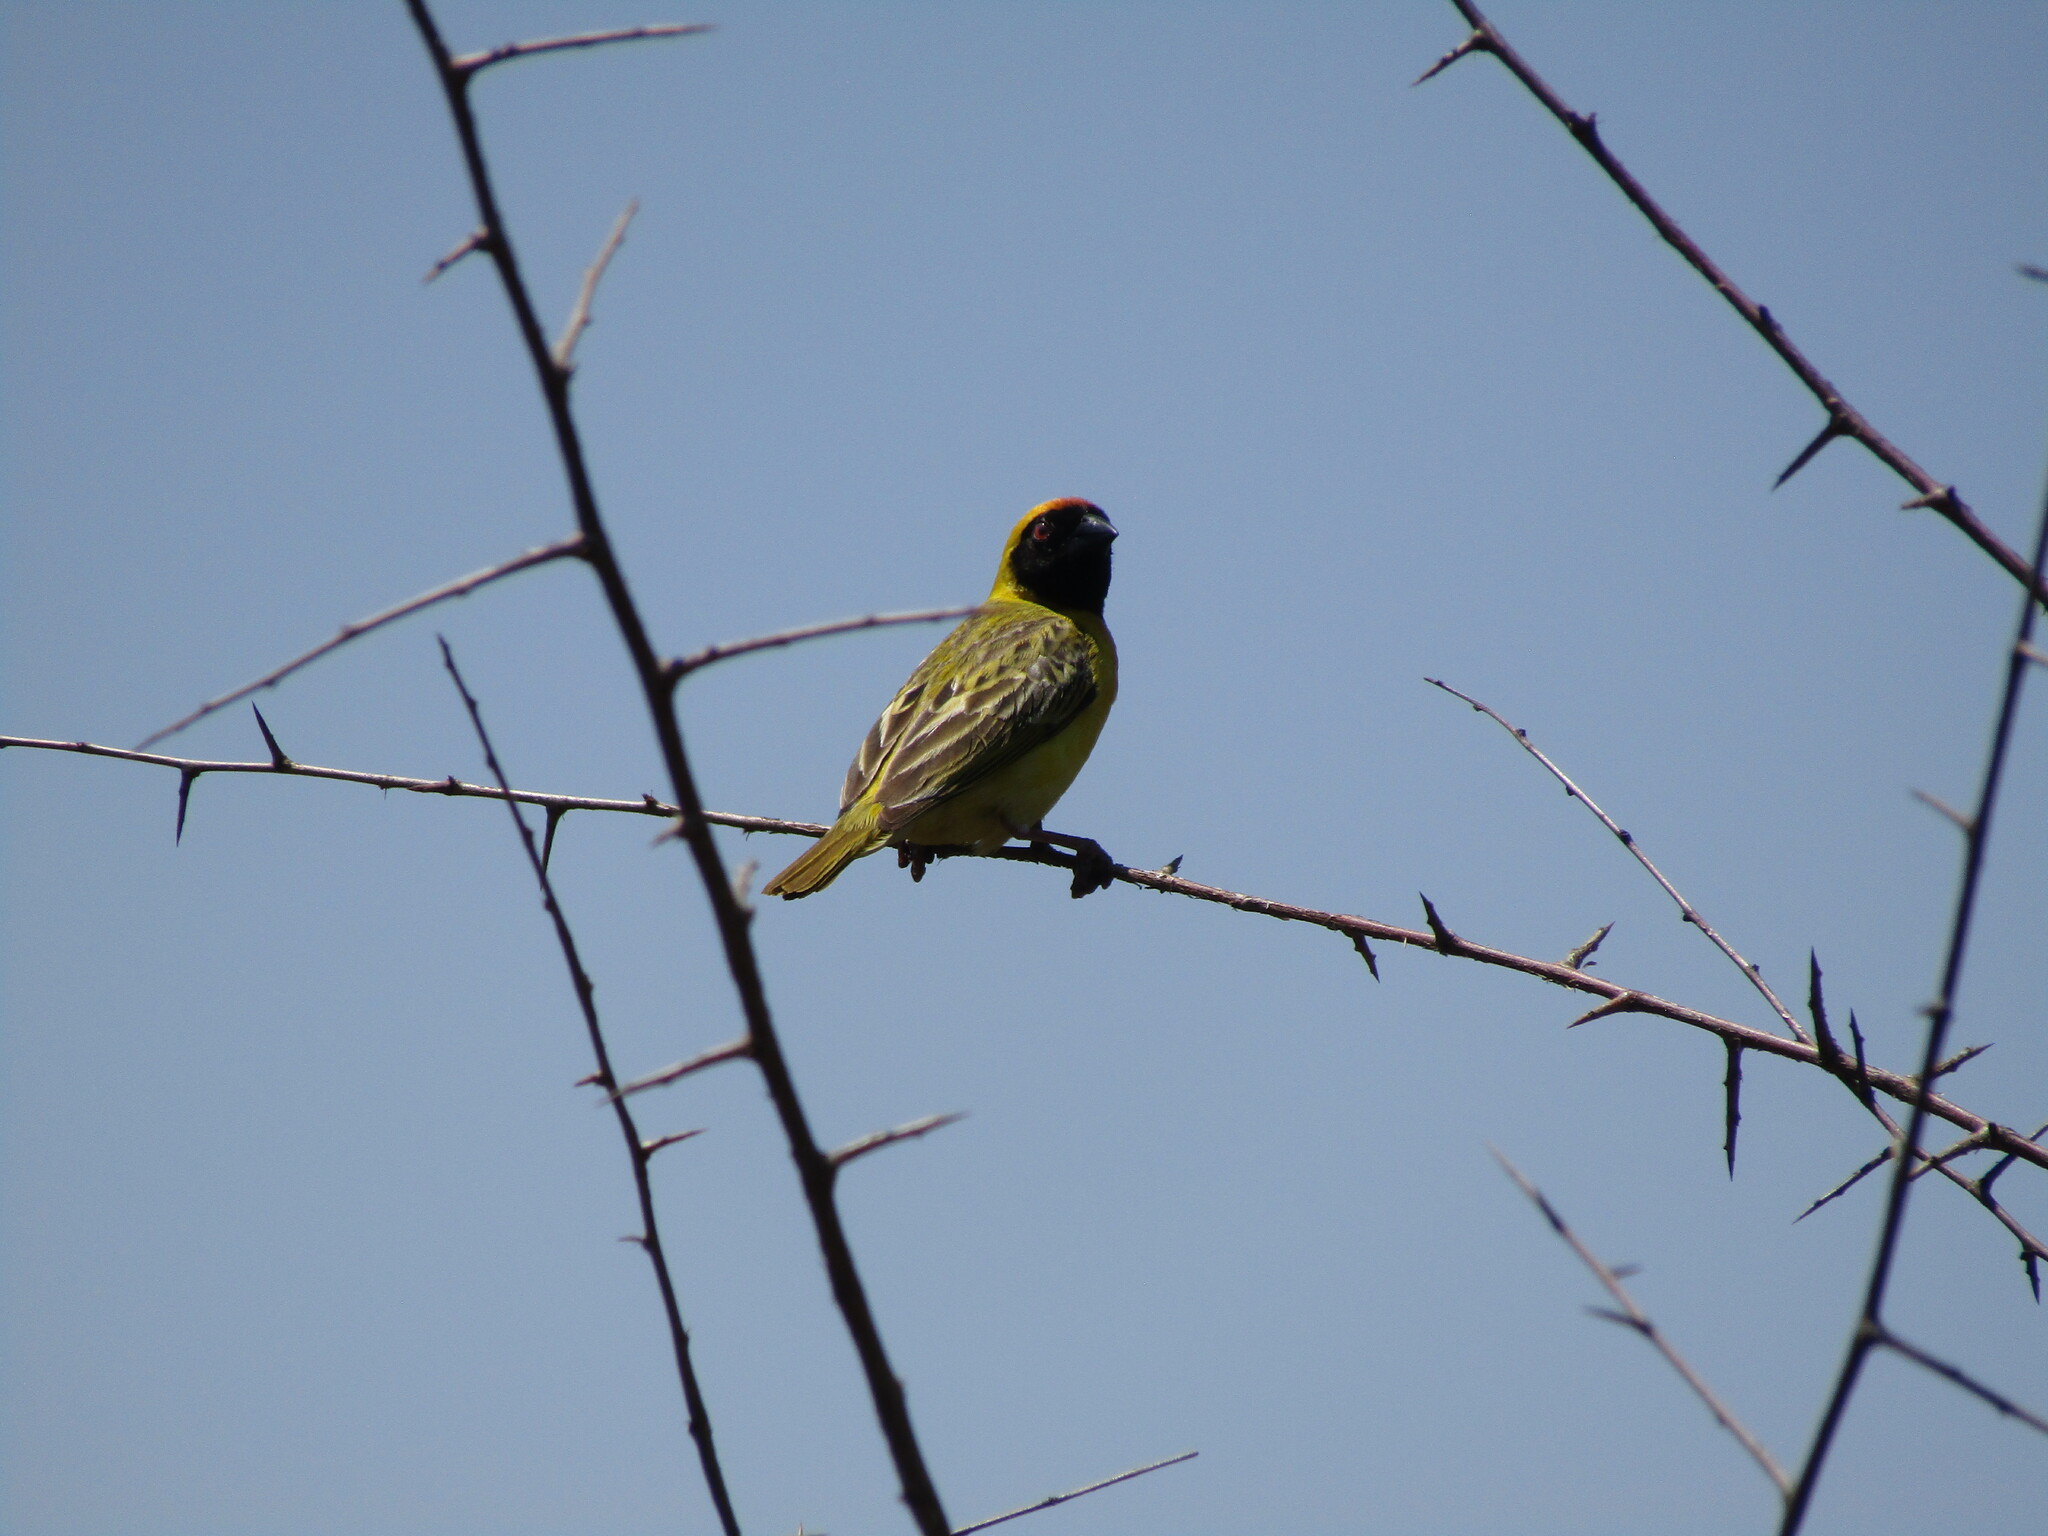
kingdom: Animalia
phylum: Chordata
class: Aves
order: Passeriformes
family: Ploceidae
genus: Ploceus
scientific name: Ploceus velatus
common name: Southern masked weaver
